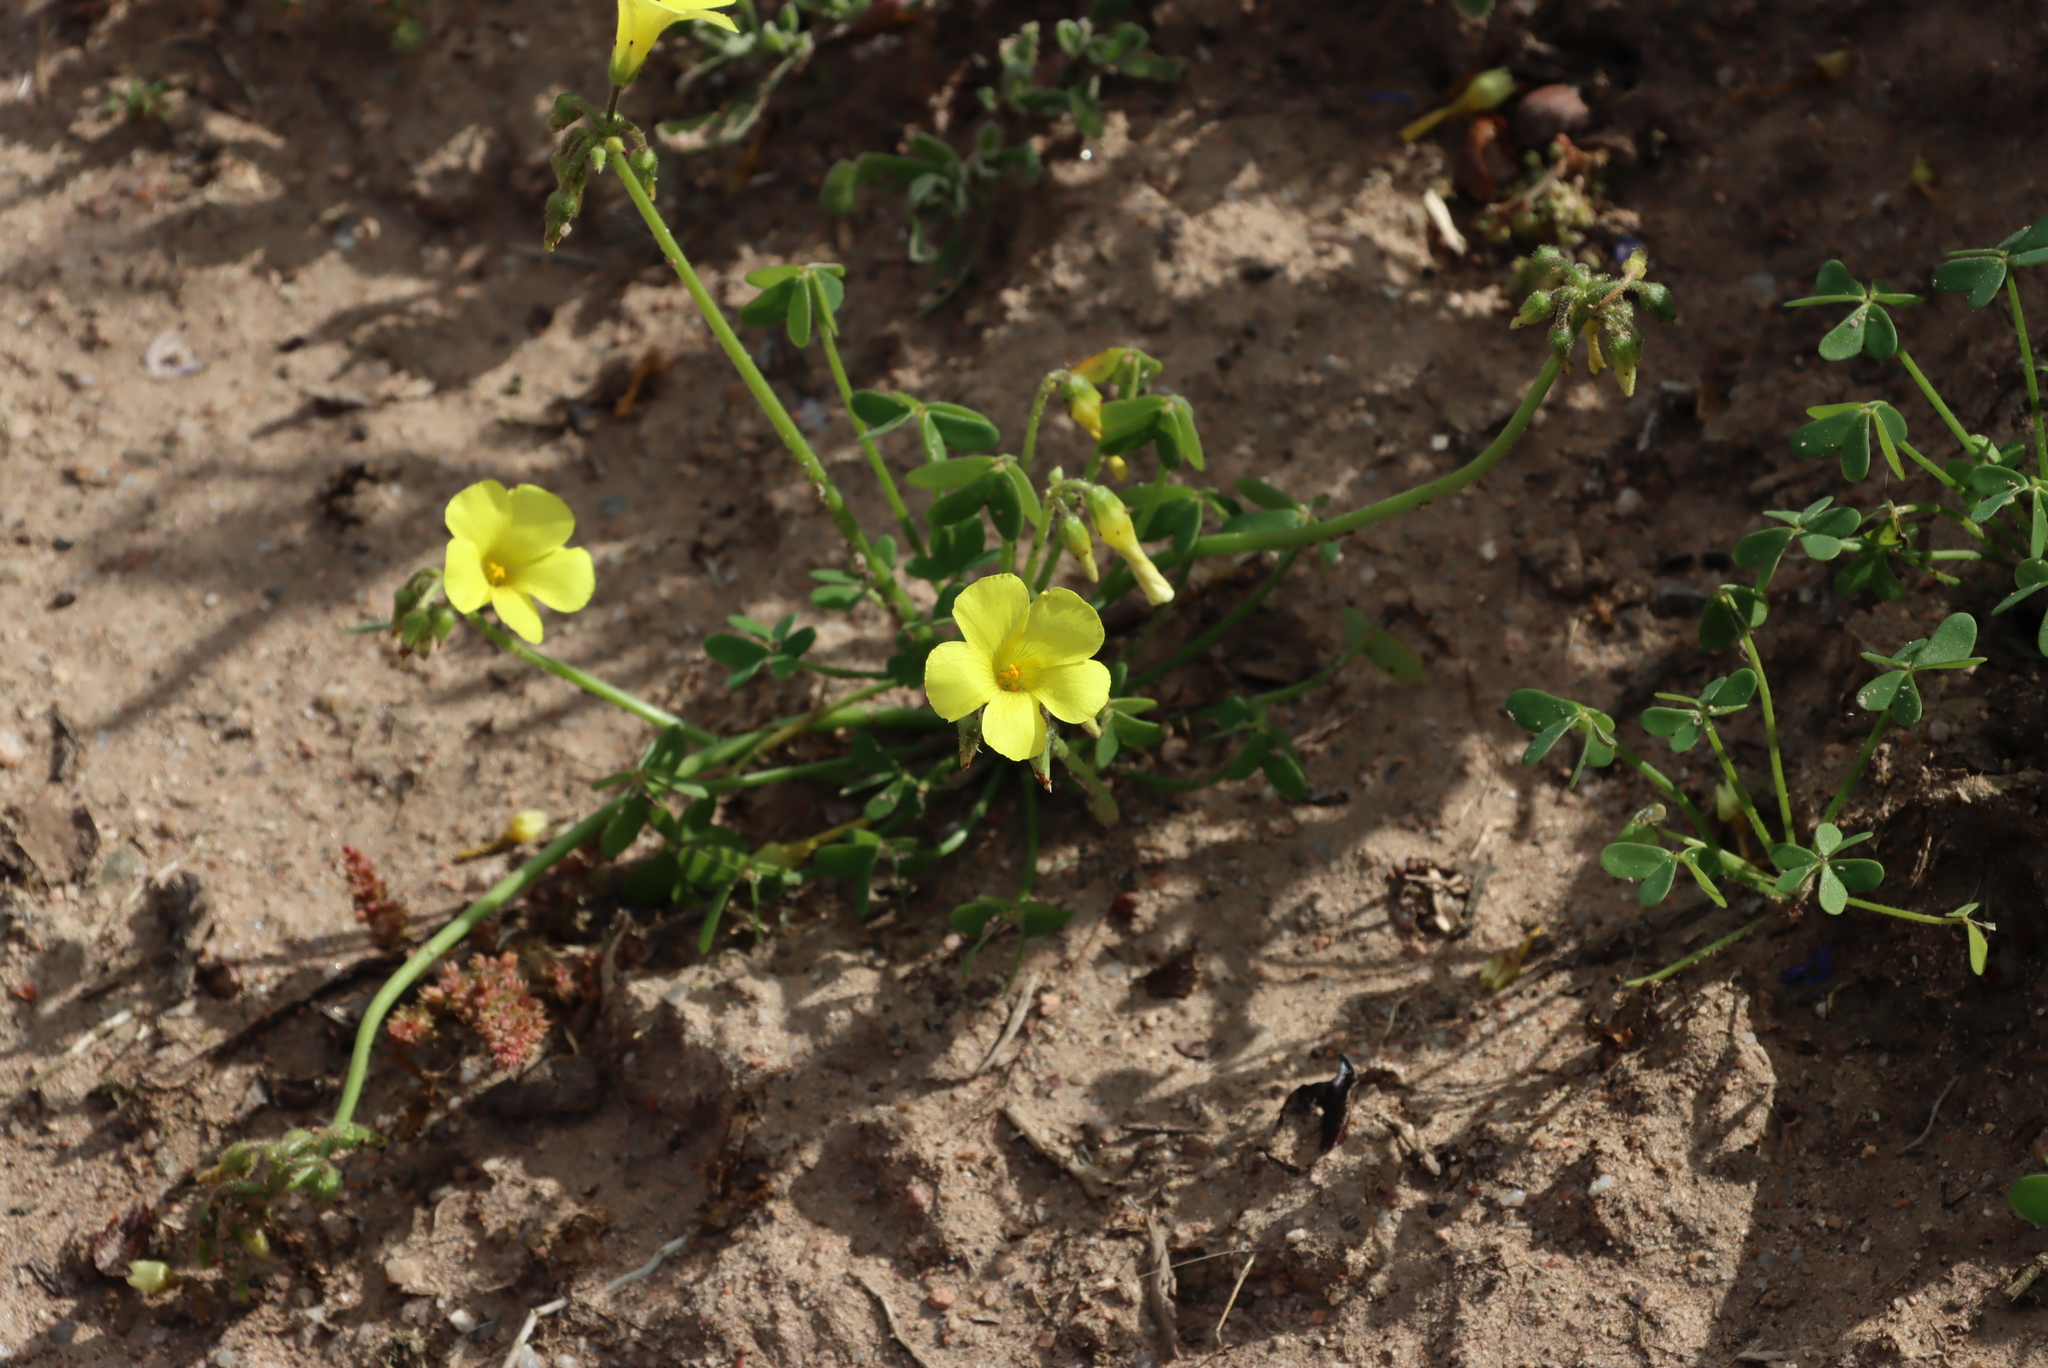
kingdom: Plantae
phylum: Tracheophyta
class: Magnoliopsida
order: Oxalidales
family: Oxalidaceae
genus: Oxalis
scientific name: Oxalis pes-caprae
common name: Bermuda-buttercup
